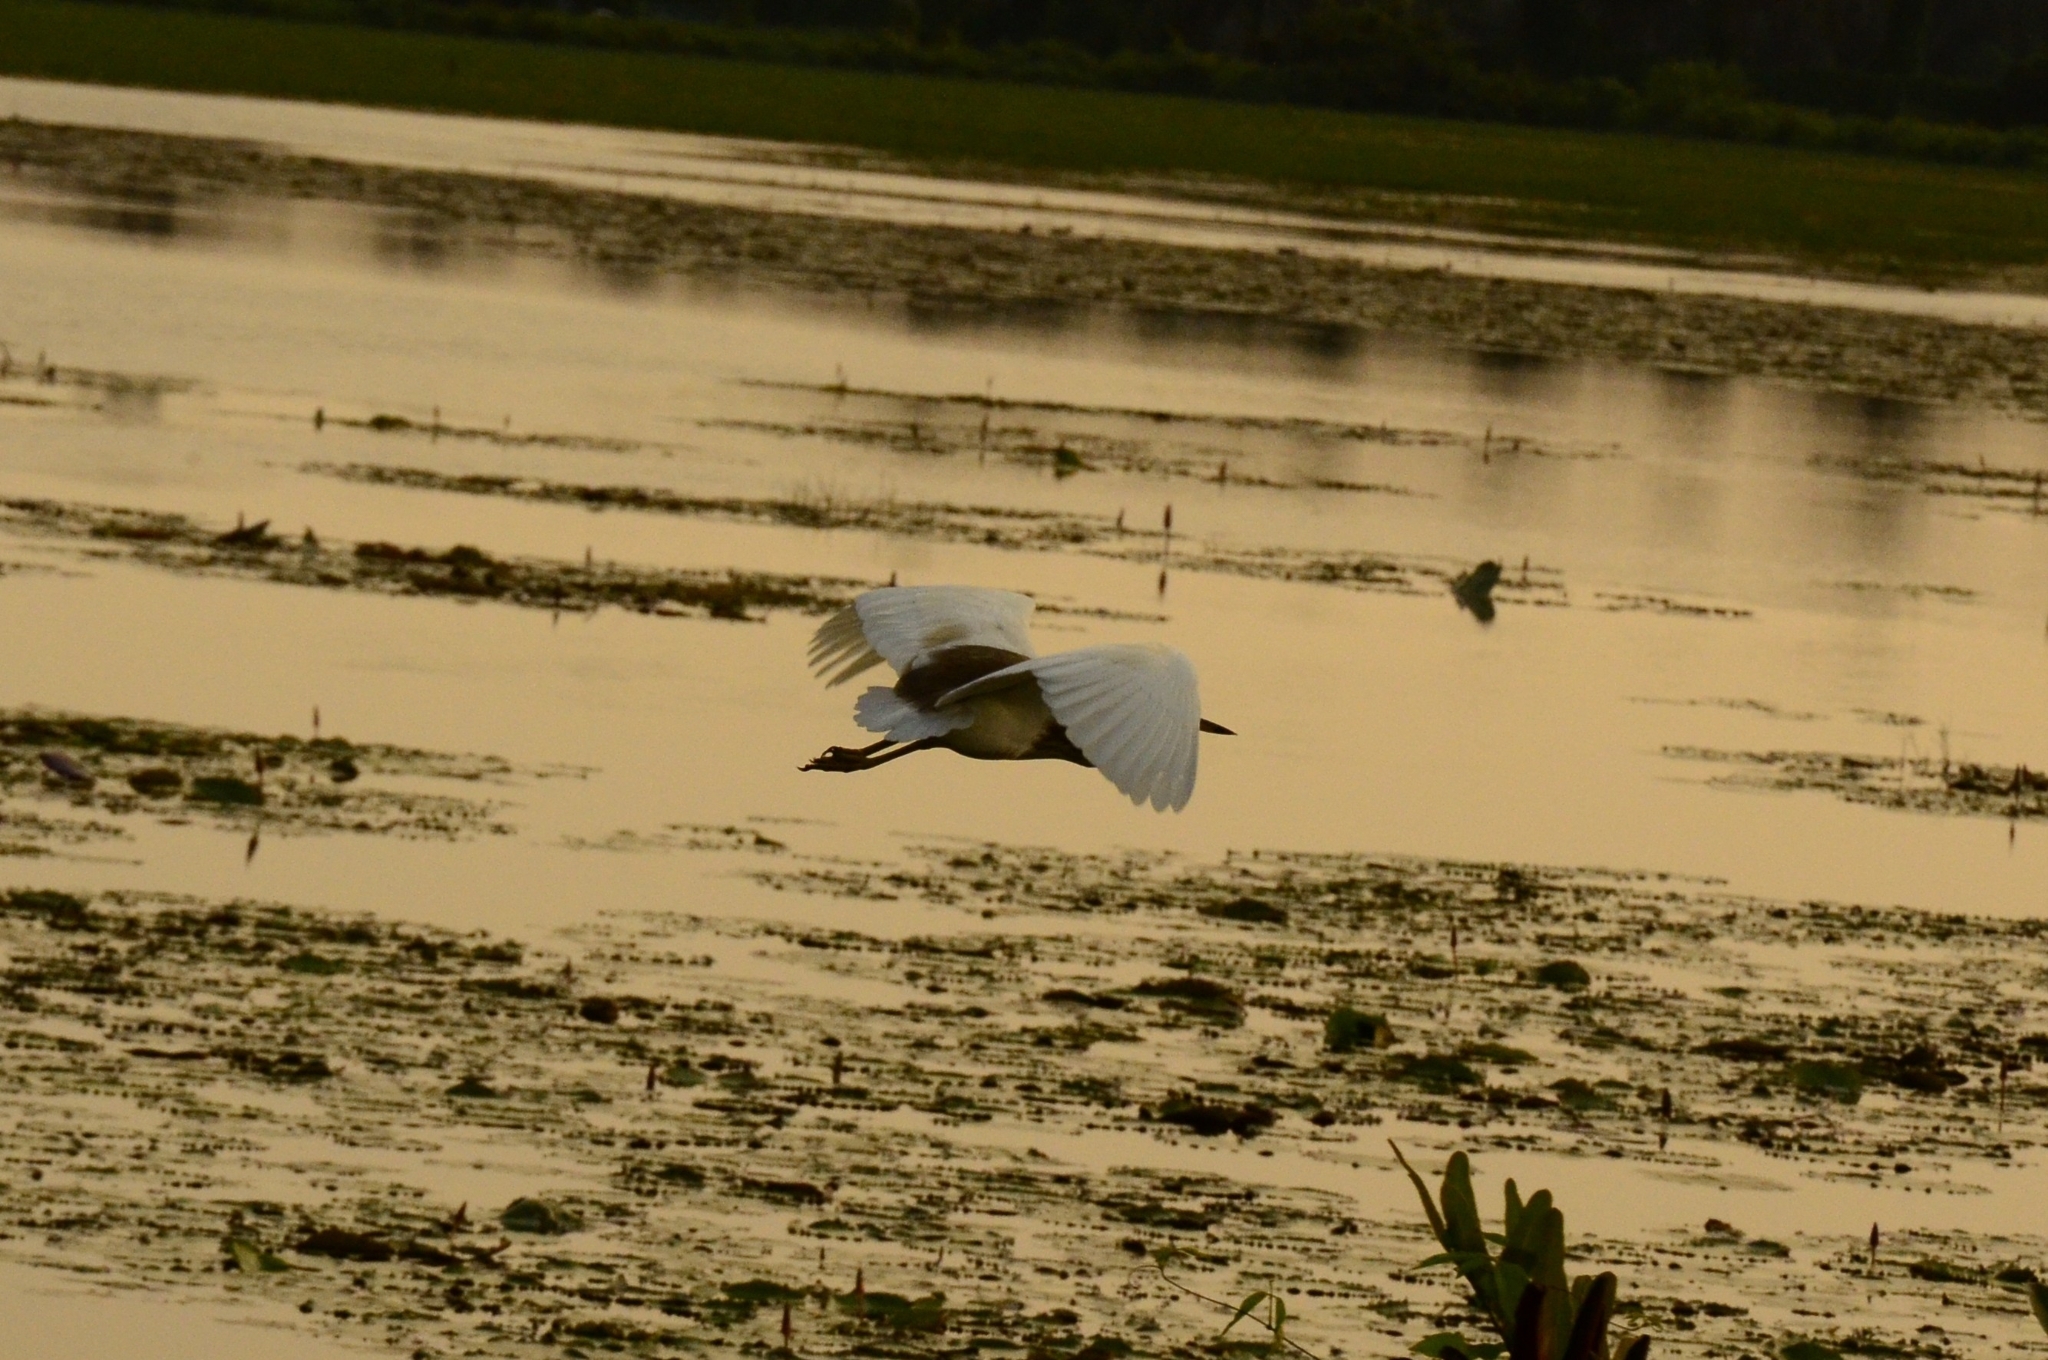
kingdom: Animalia
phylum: Chordata
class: Aves
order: Pelecaniformes
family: Ardeidae
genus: Ardeola
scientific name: Ardeola grayii
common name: Indian pond heron
